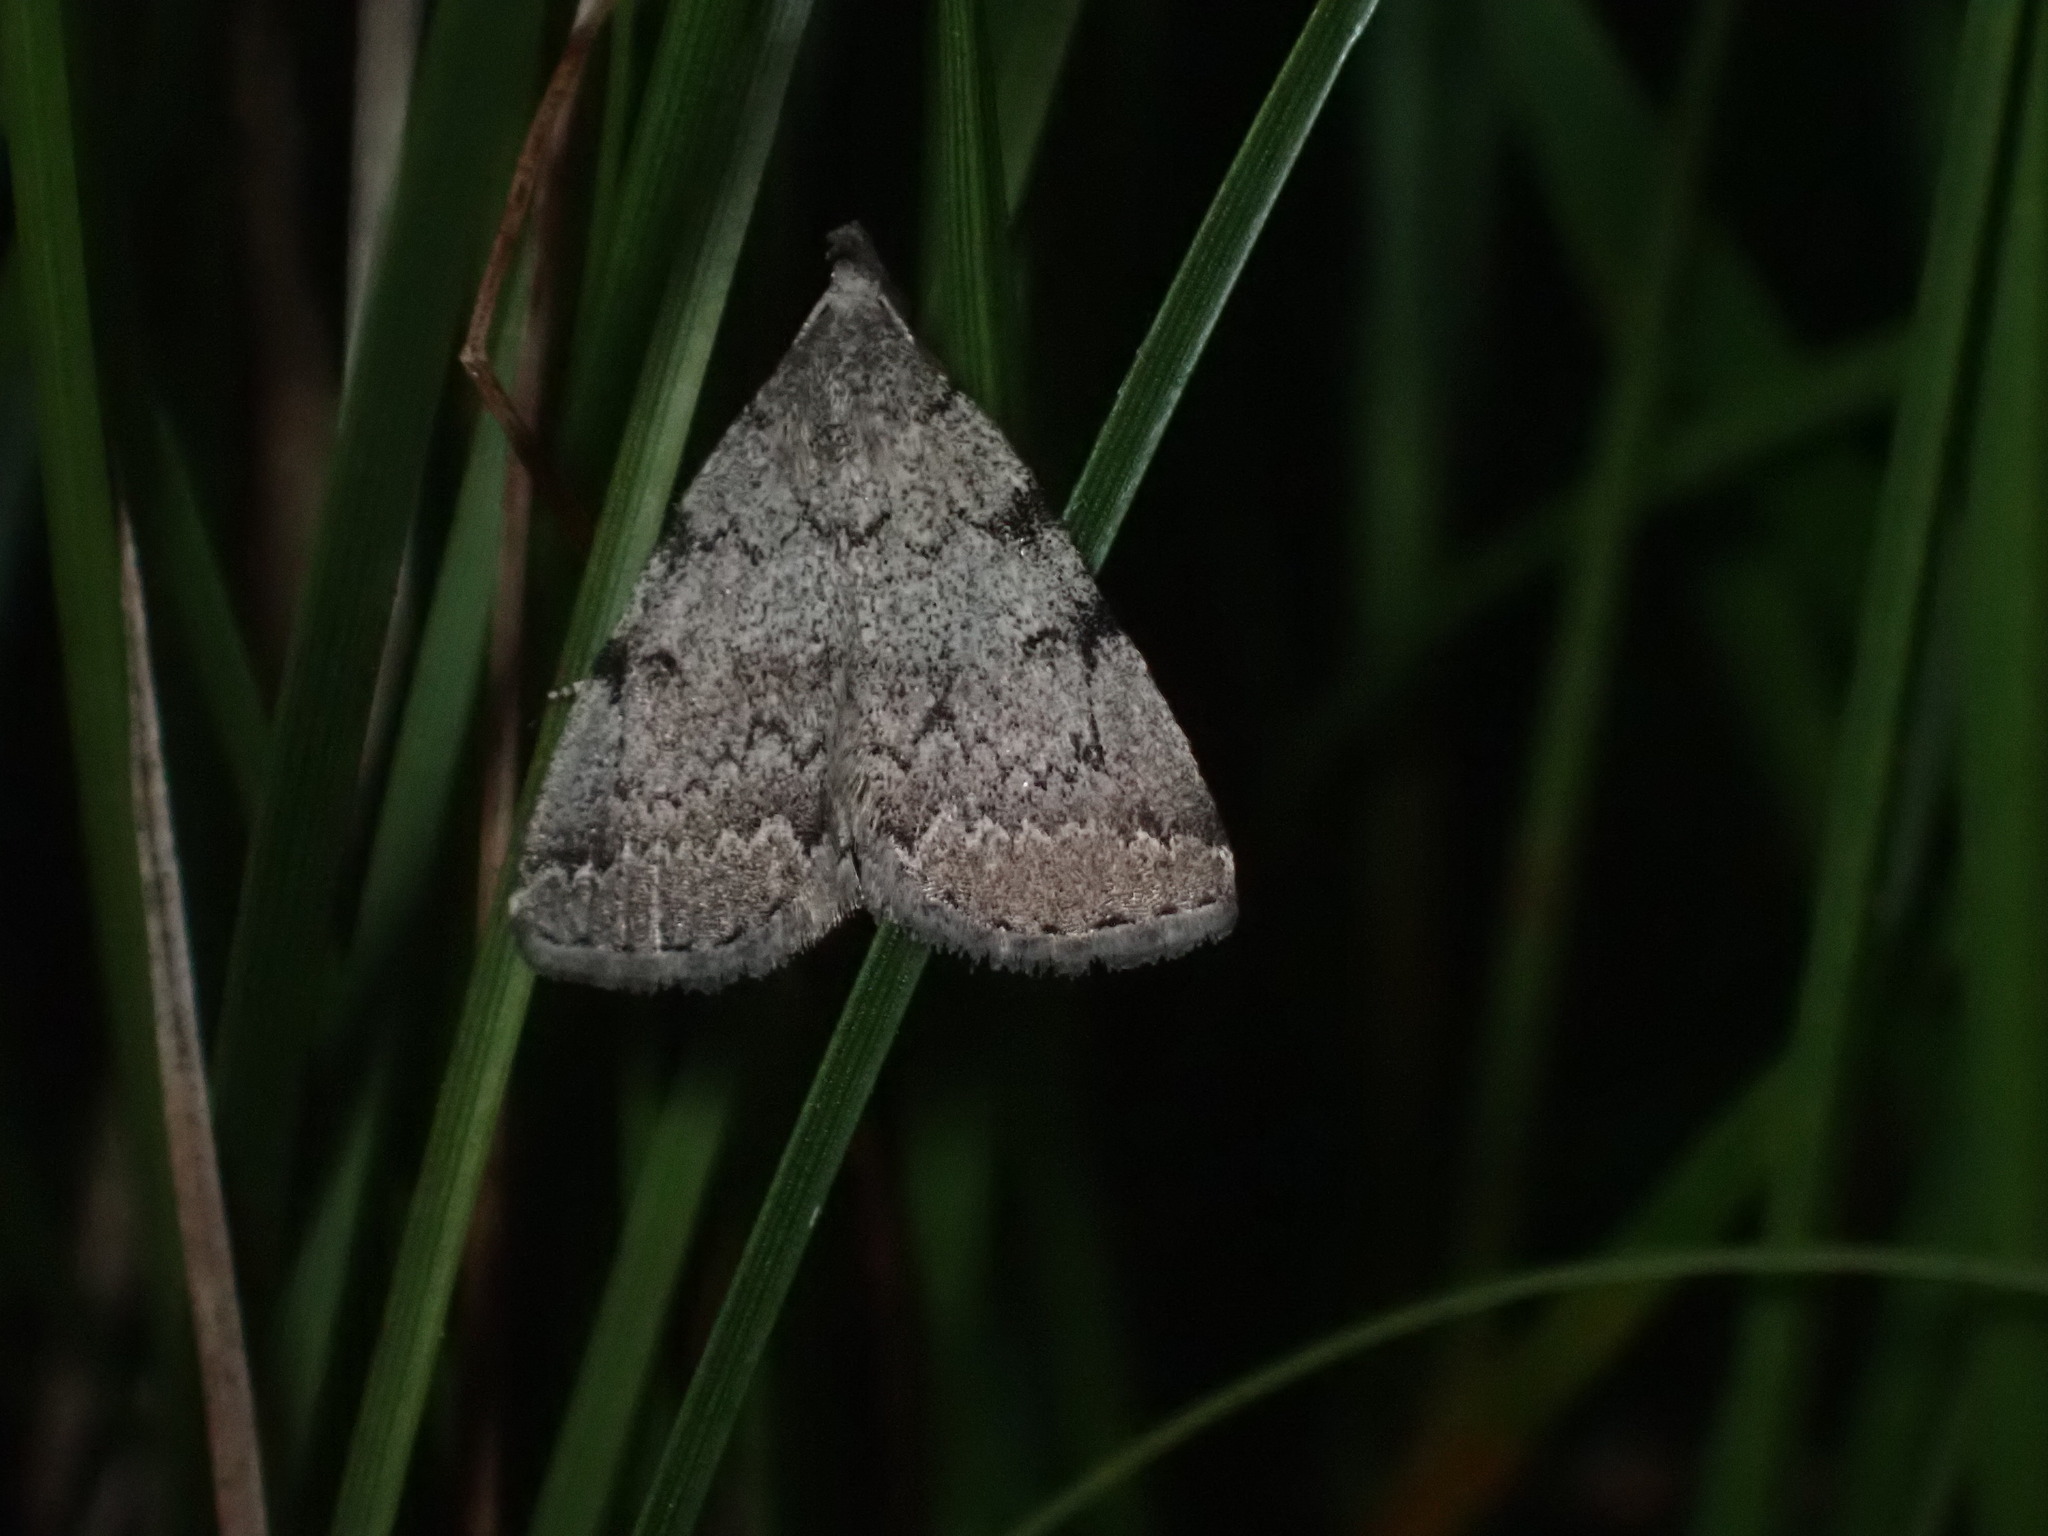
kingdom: Animalia
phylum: Arthropoda
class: Insecta
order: Lepidoptera
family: Erebidae
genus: Zanclognatha
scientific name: Zanclognatha theralis
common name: Flagged fan-foot
